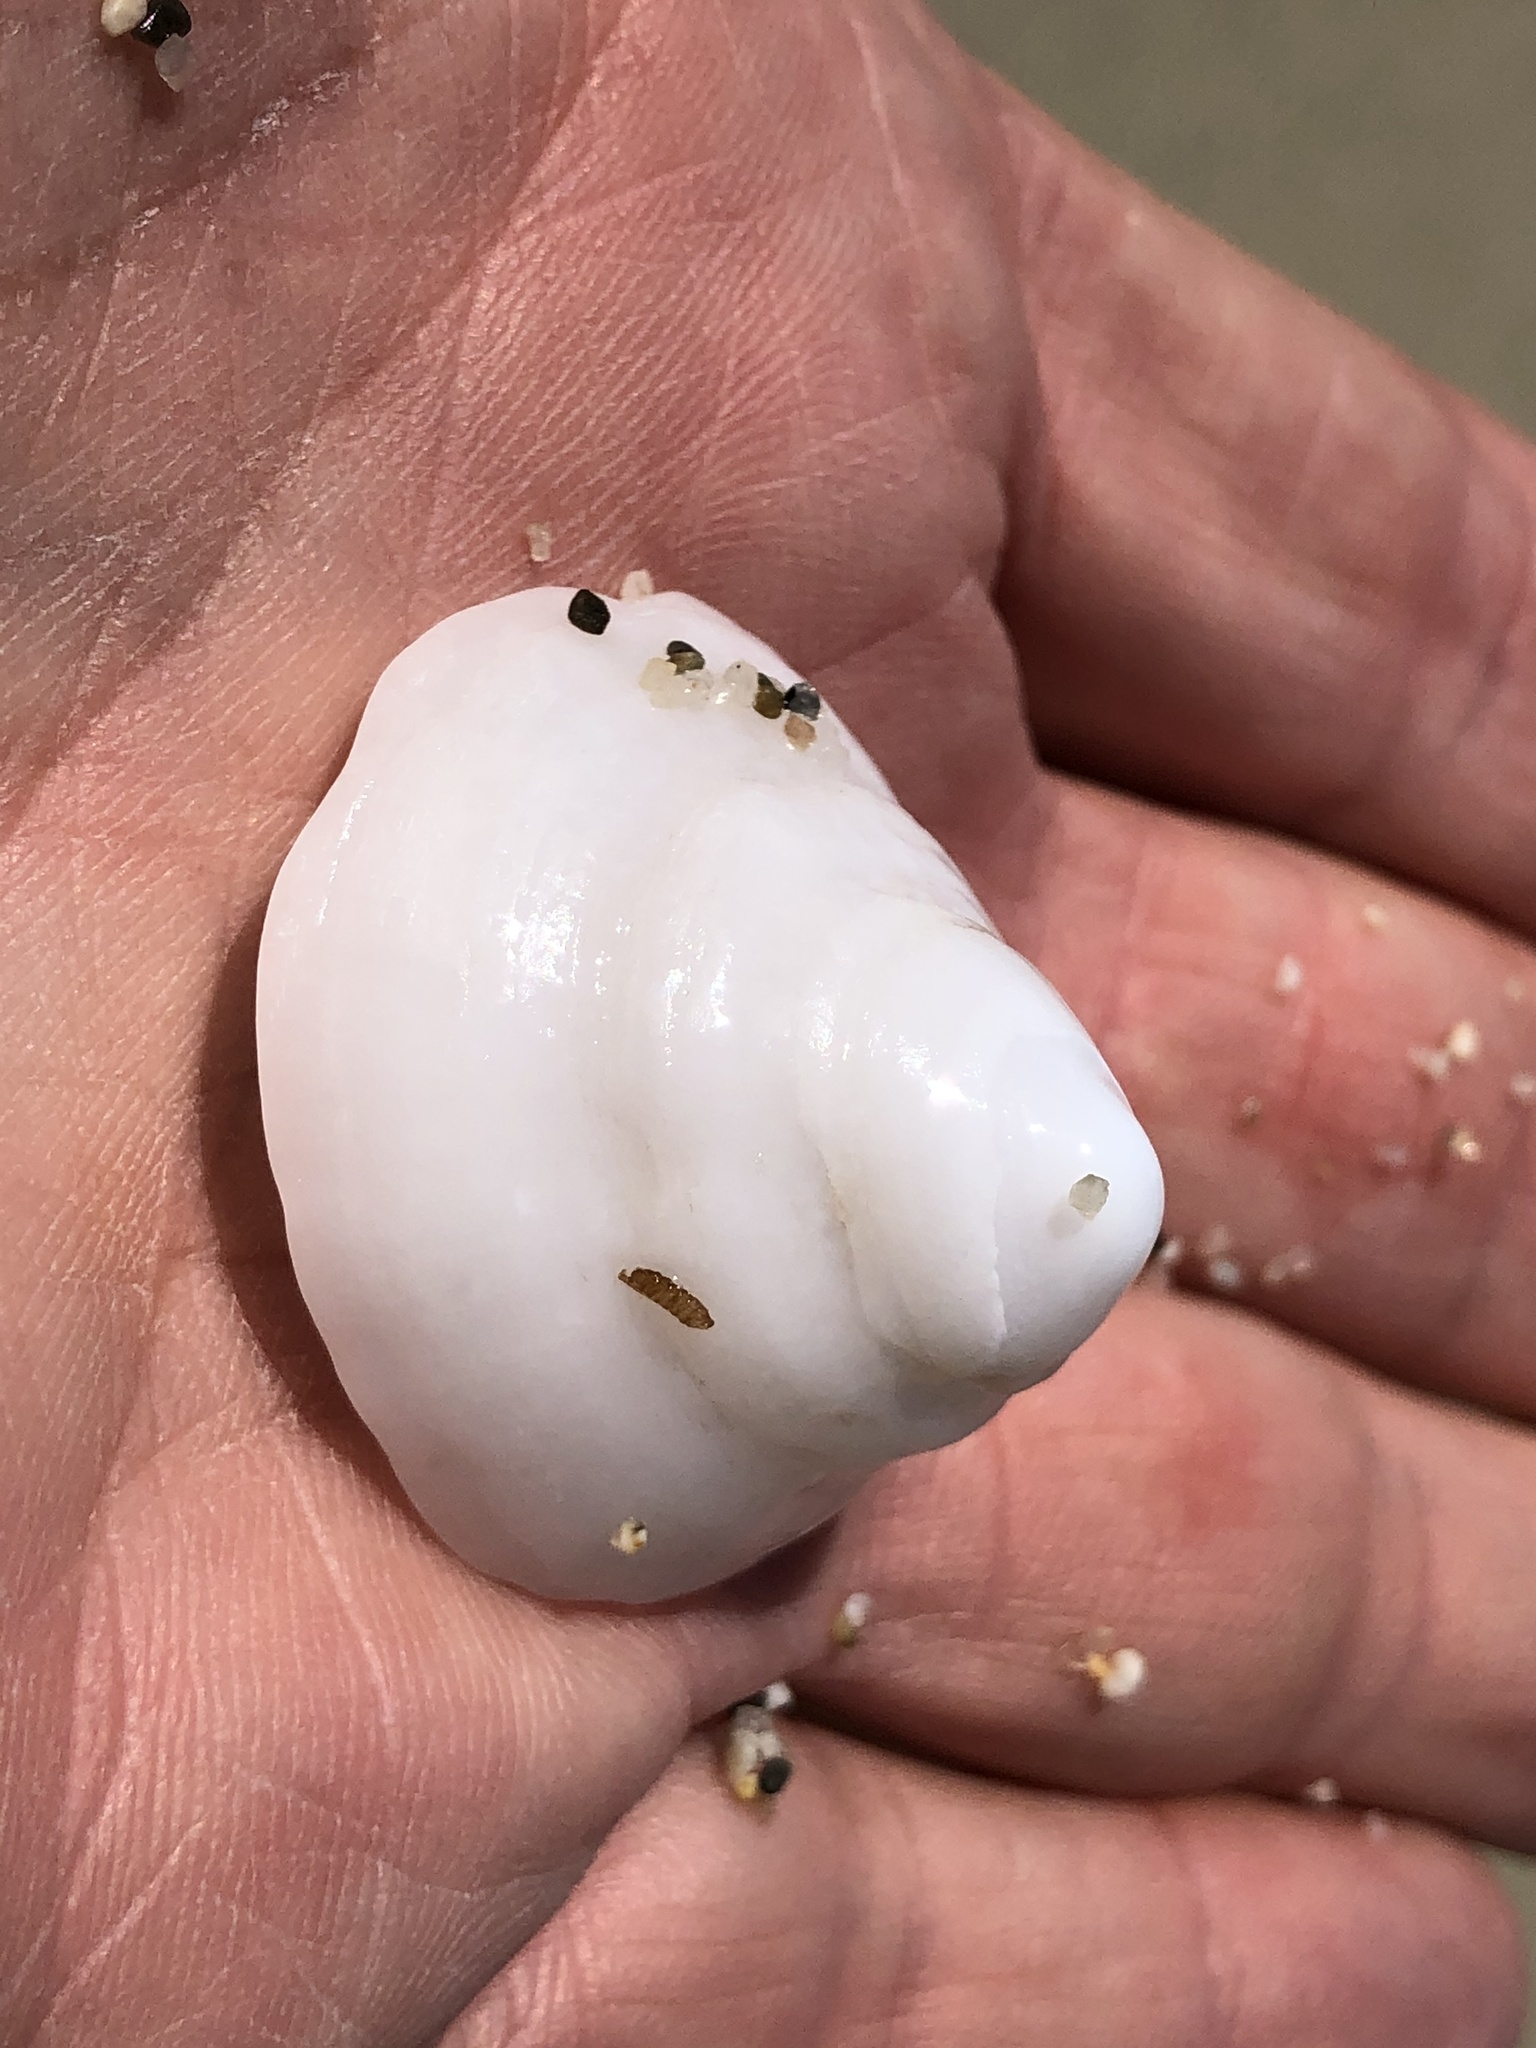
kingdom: Animalia
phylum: Mollusca
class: Gastropoda
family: Acmaeidae
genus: Acmaea
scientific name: Acmaea mitra
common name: Pacific white cap limpet
